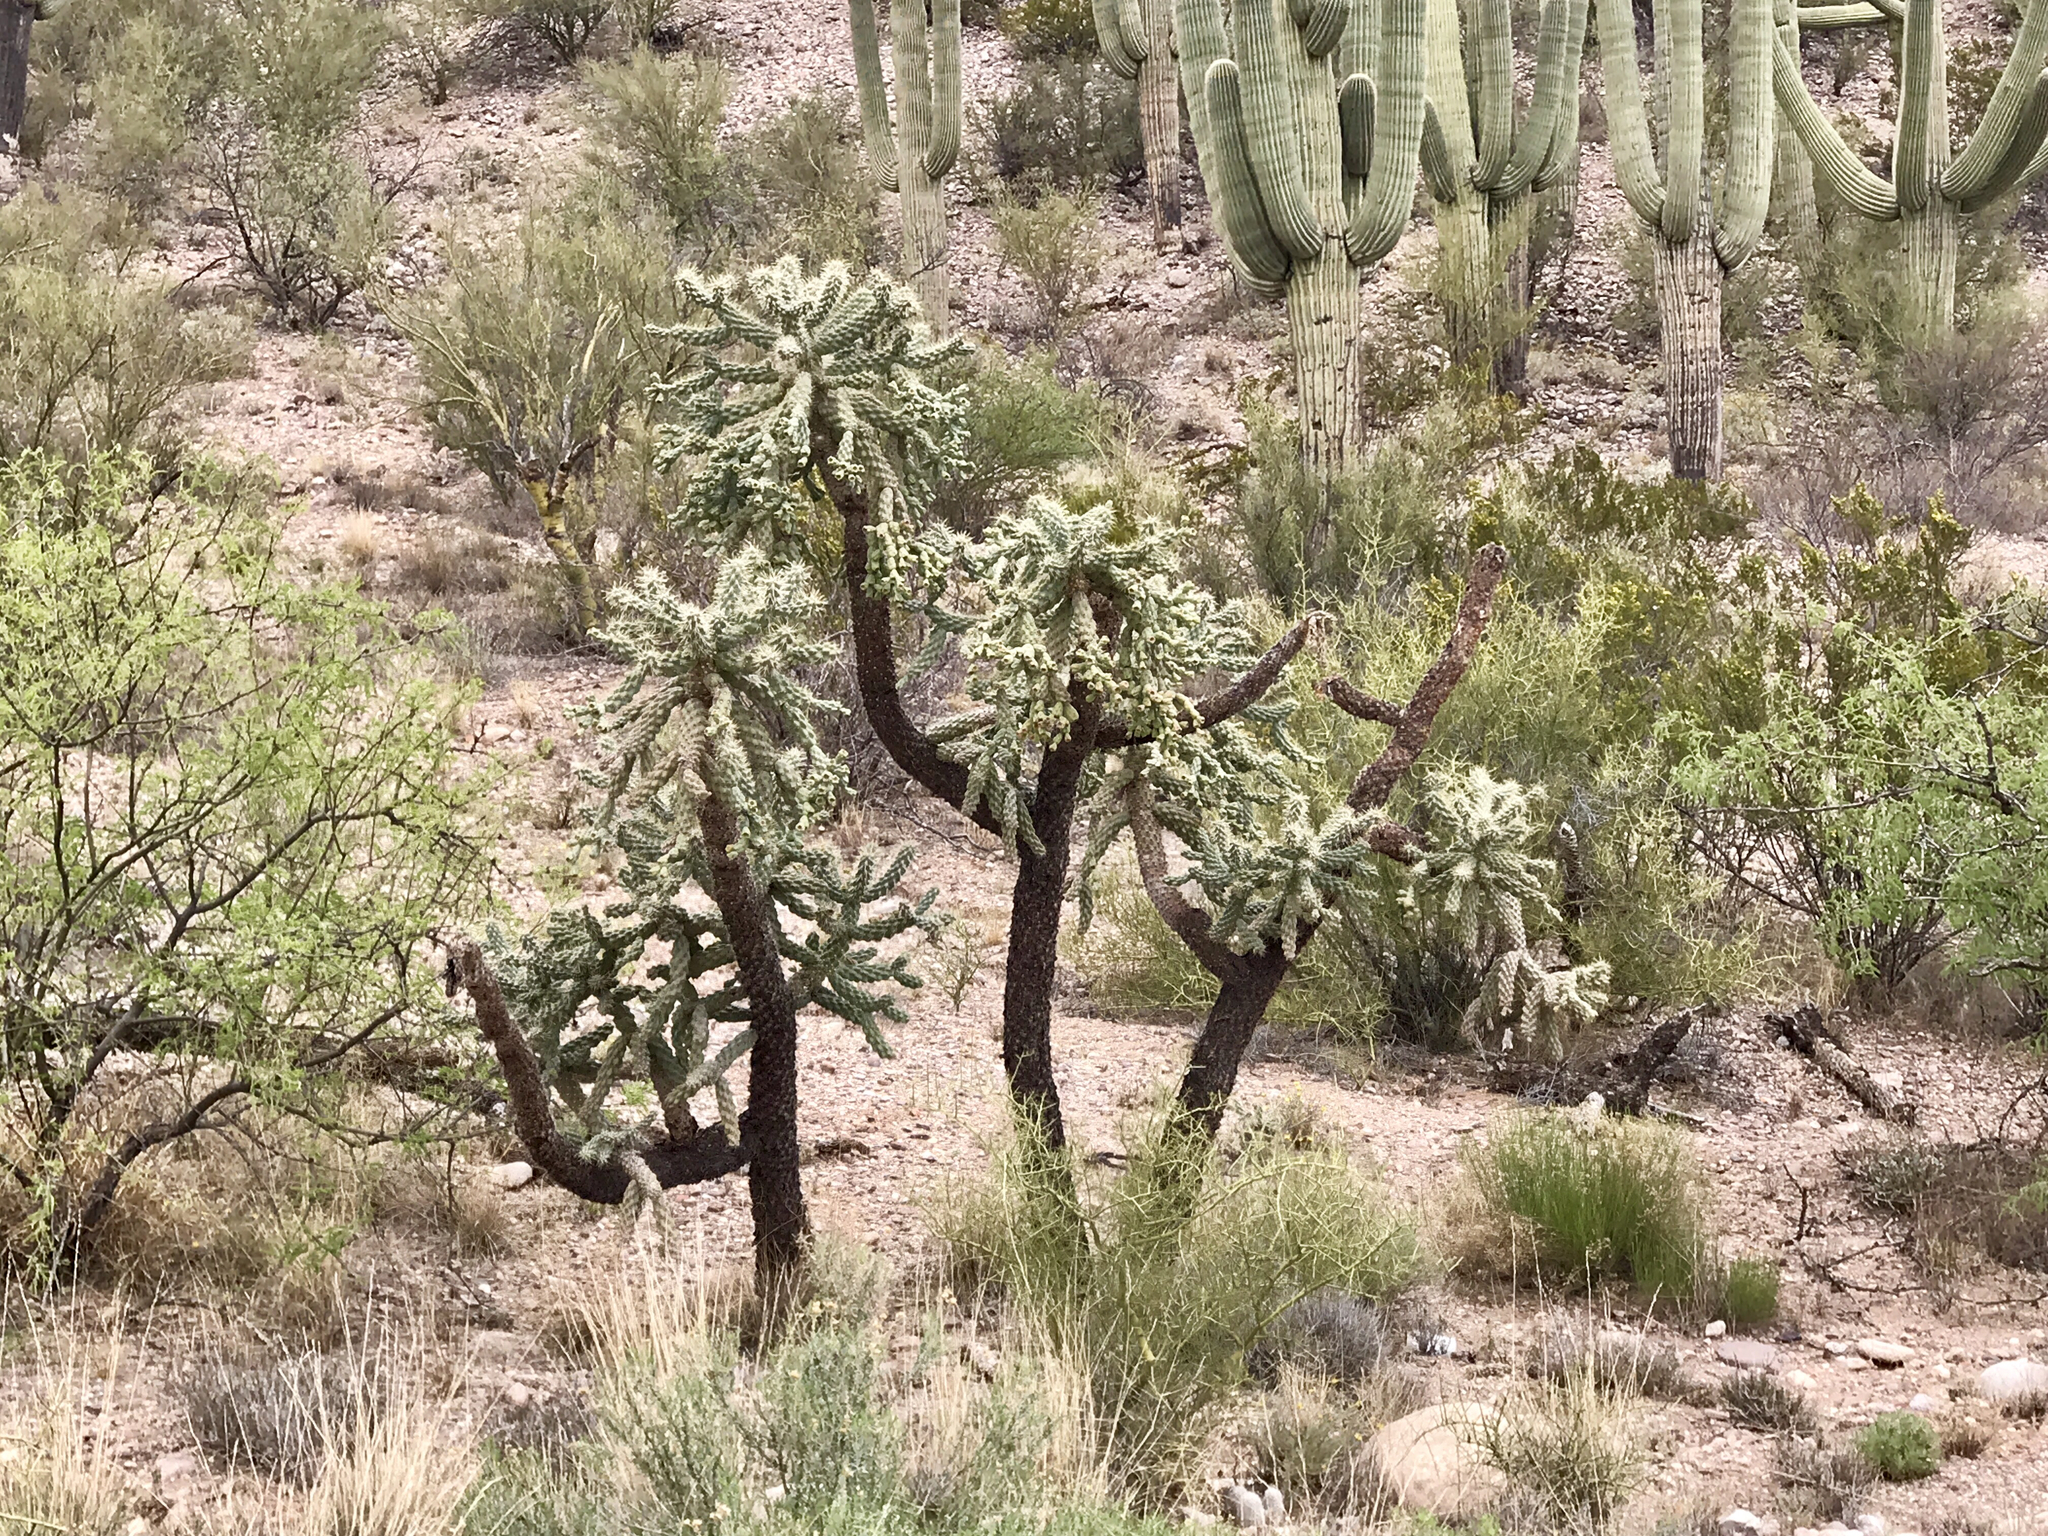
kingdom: Plantae
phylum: Tracheophyta
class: Magnoliopsida
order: Caryophyllales
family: Cactaceae
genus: Cylindropuntia
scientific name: Cylindropuntia fulgida
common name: Jumping cholla
